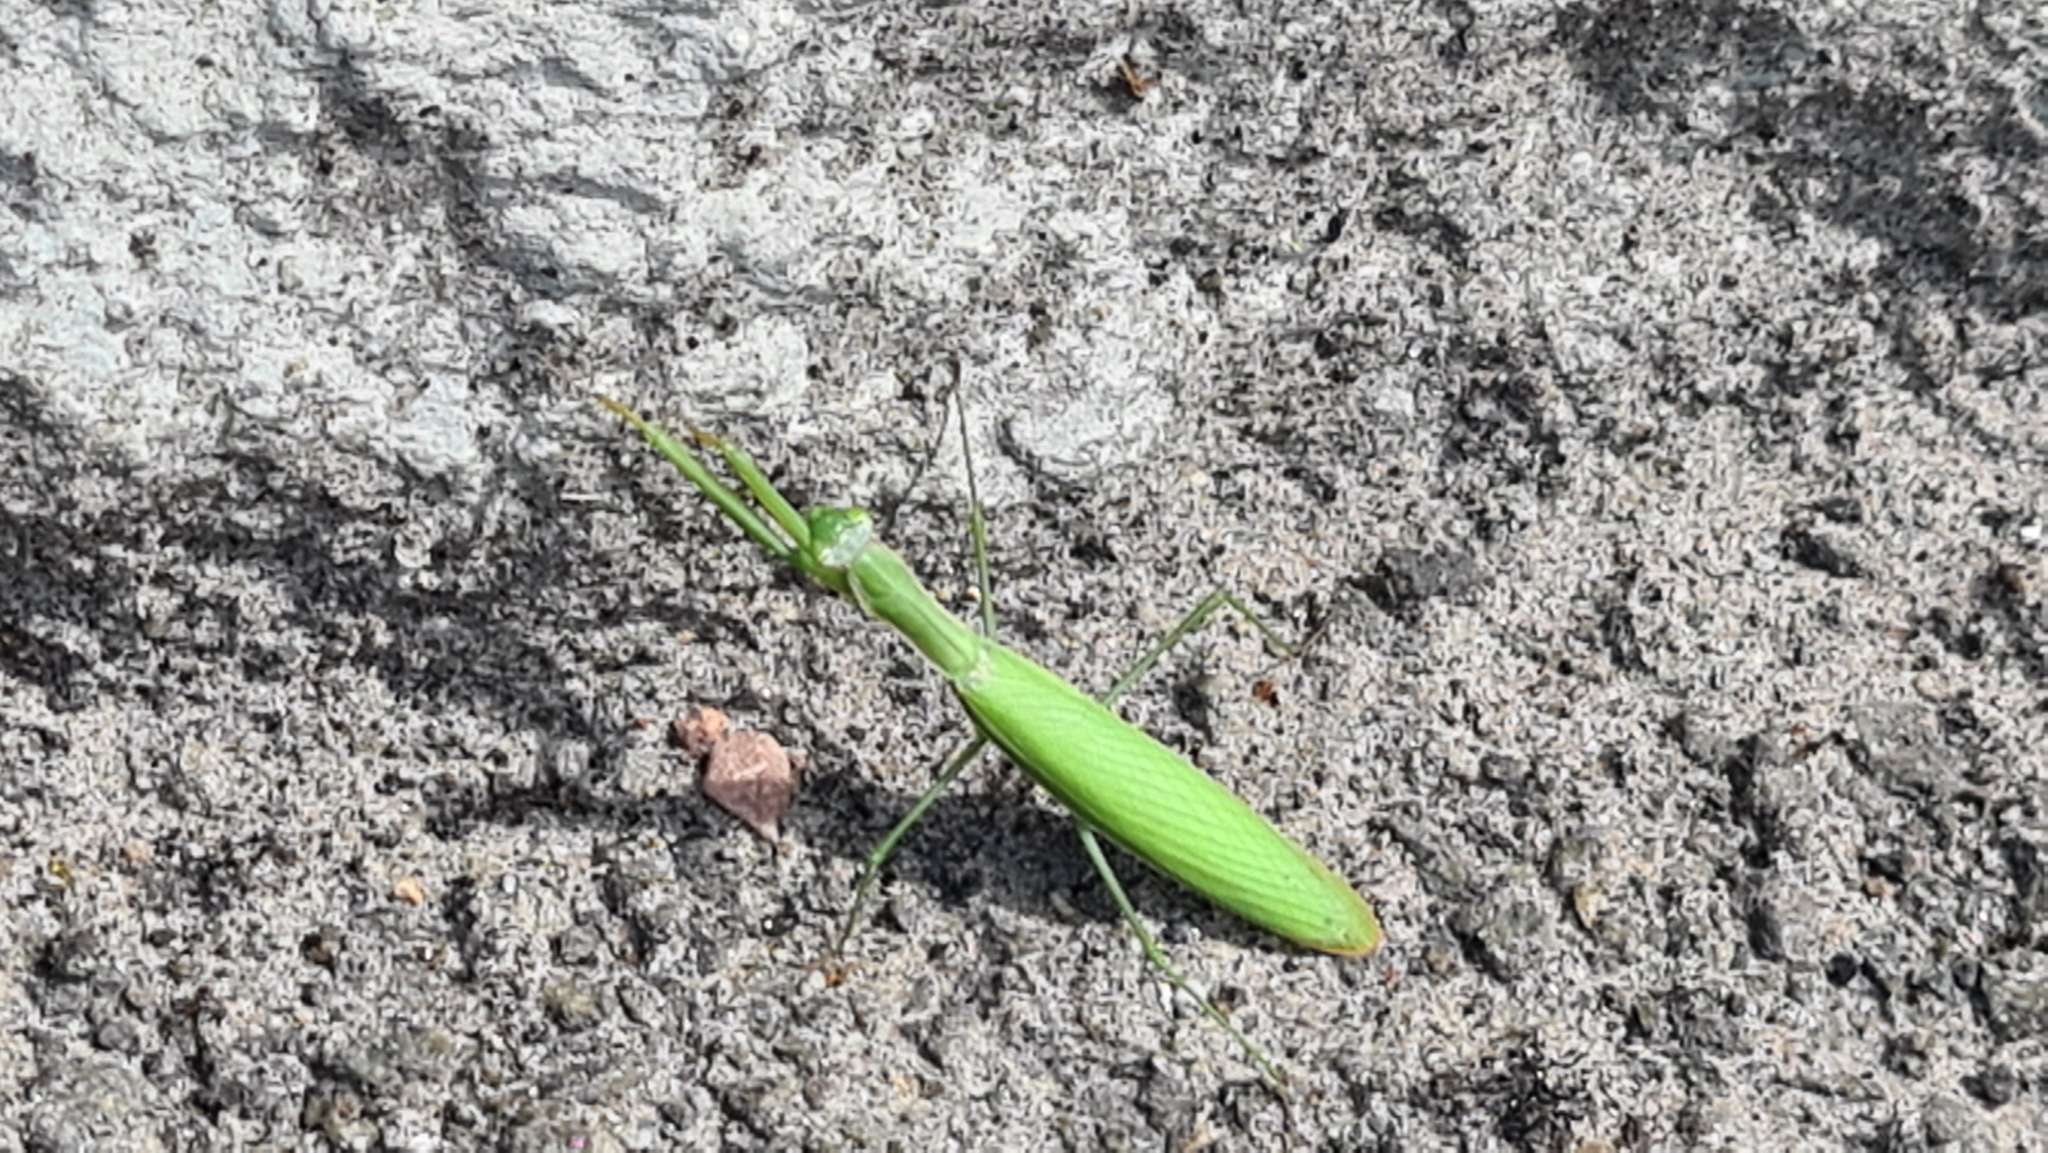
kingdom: Animalia
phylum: Arthropoda
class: Insecta
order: Mantodea
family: Mantidae
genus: Mantis
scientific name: Mantis religiosa
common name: Praying mantis
